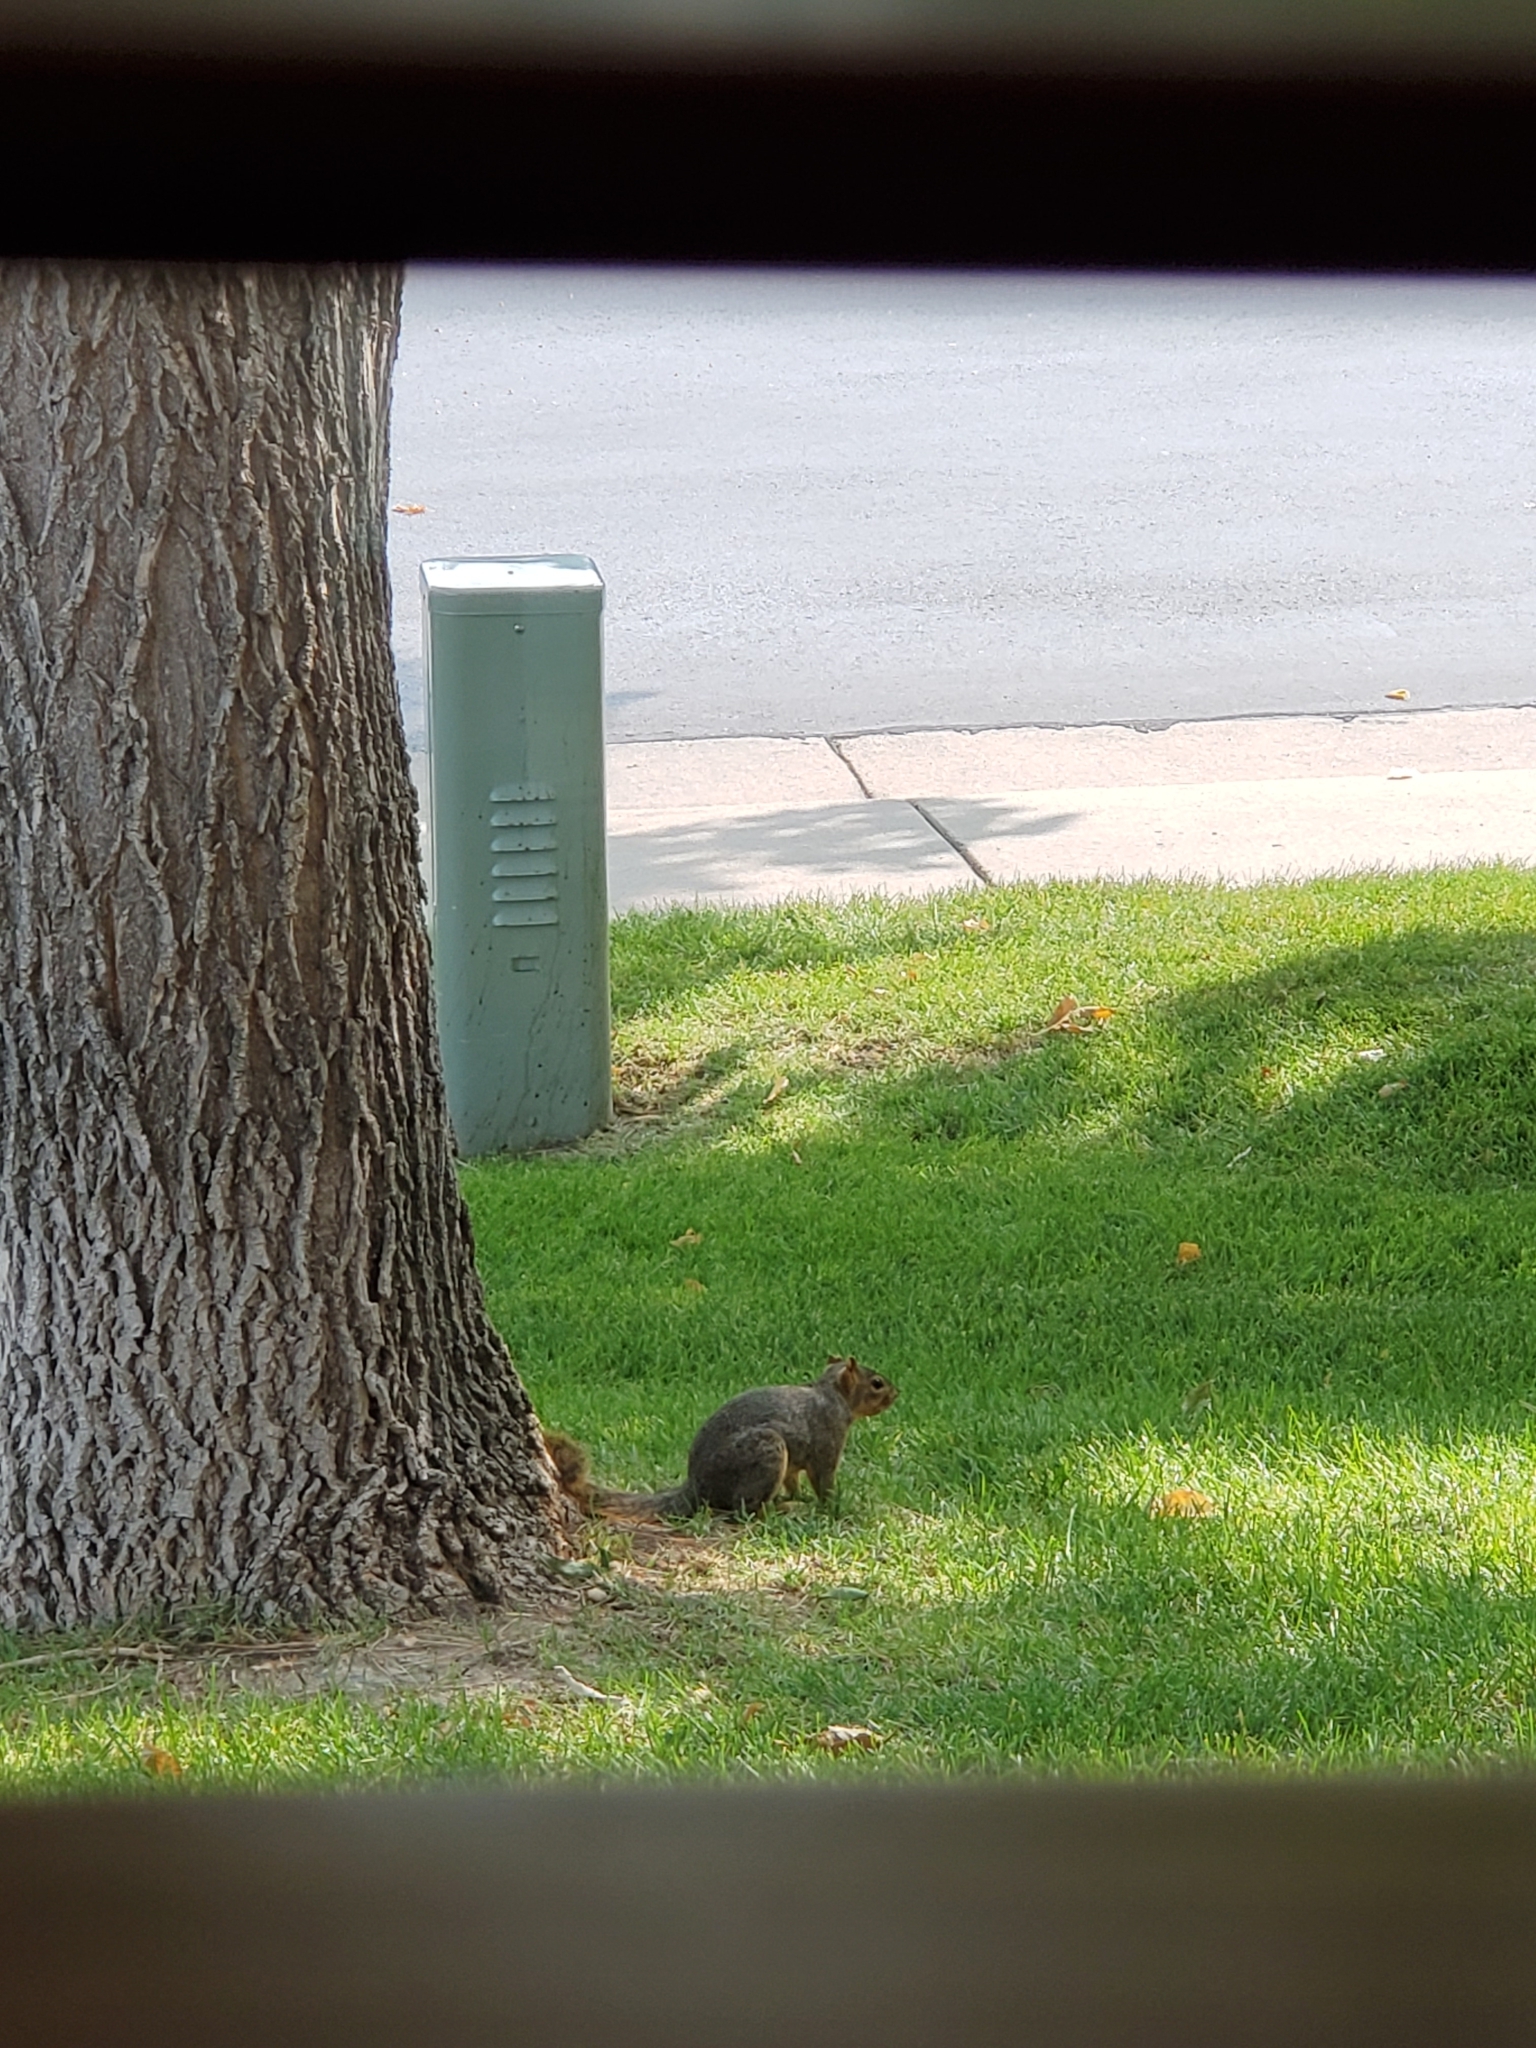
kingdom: Animalia
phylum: Chordata
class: Mammalia
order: Rodentia
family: Sciuridae
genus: Sciurus
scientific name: Sciurus niger
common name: Fox squirrel
